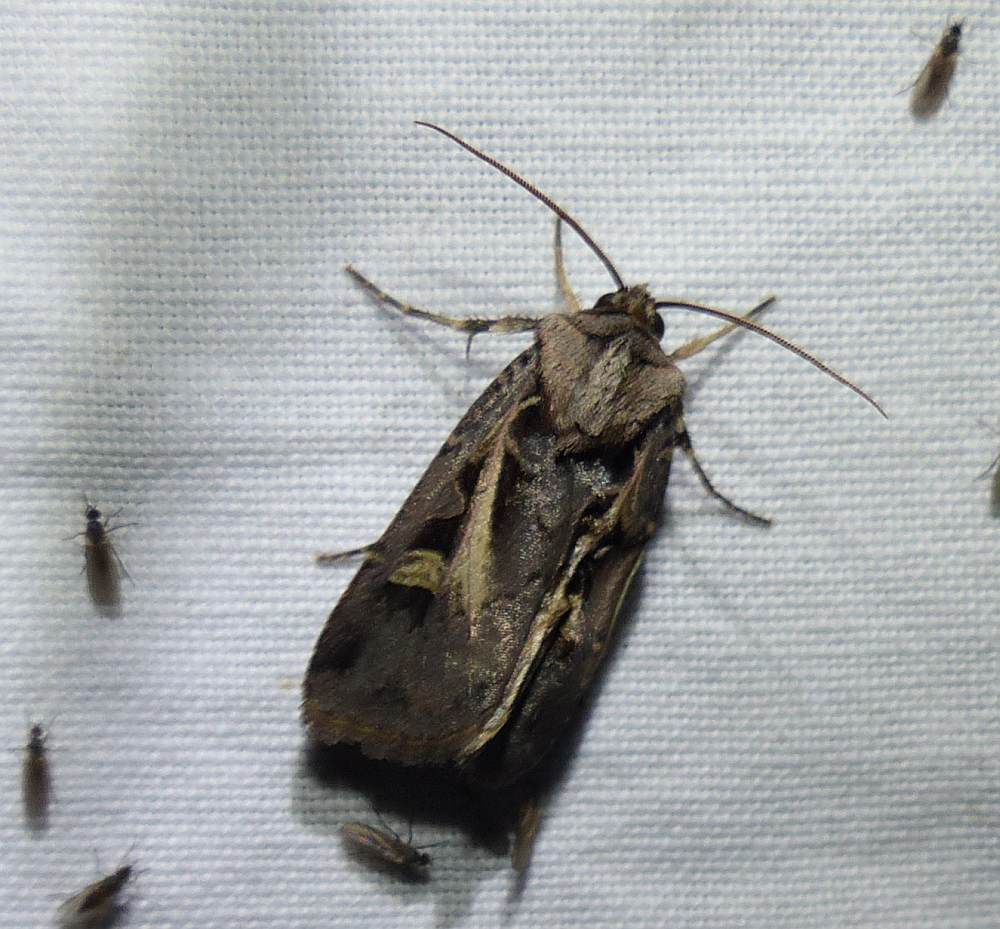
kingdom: Animalia
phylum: Arthropoda
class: Insecta
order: Lepidoptera
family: Noctuidae
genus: Feltia
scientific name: Feltia herilis
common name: Master's dart
